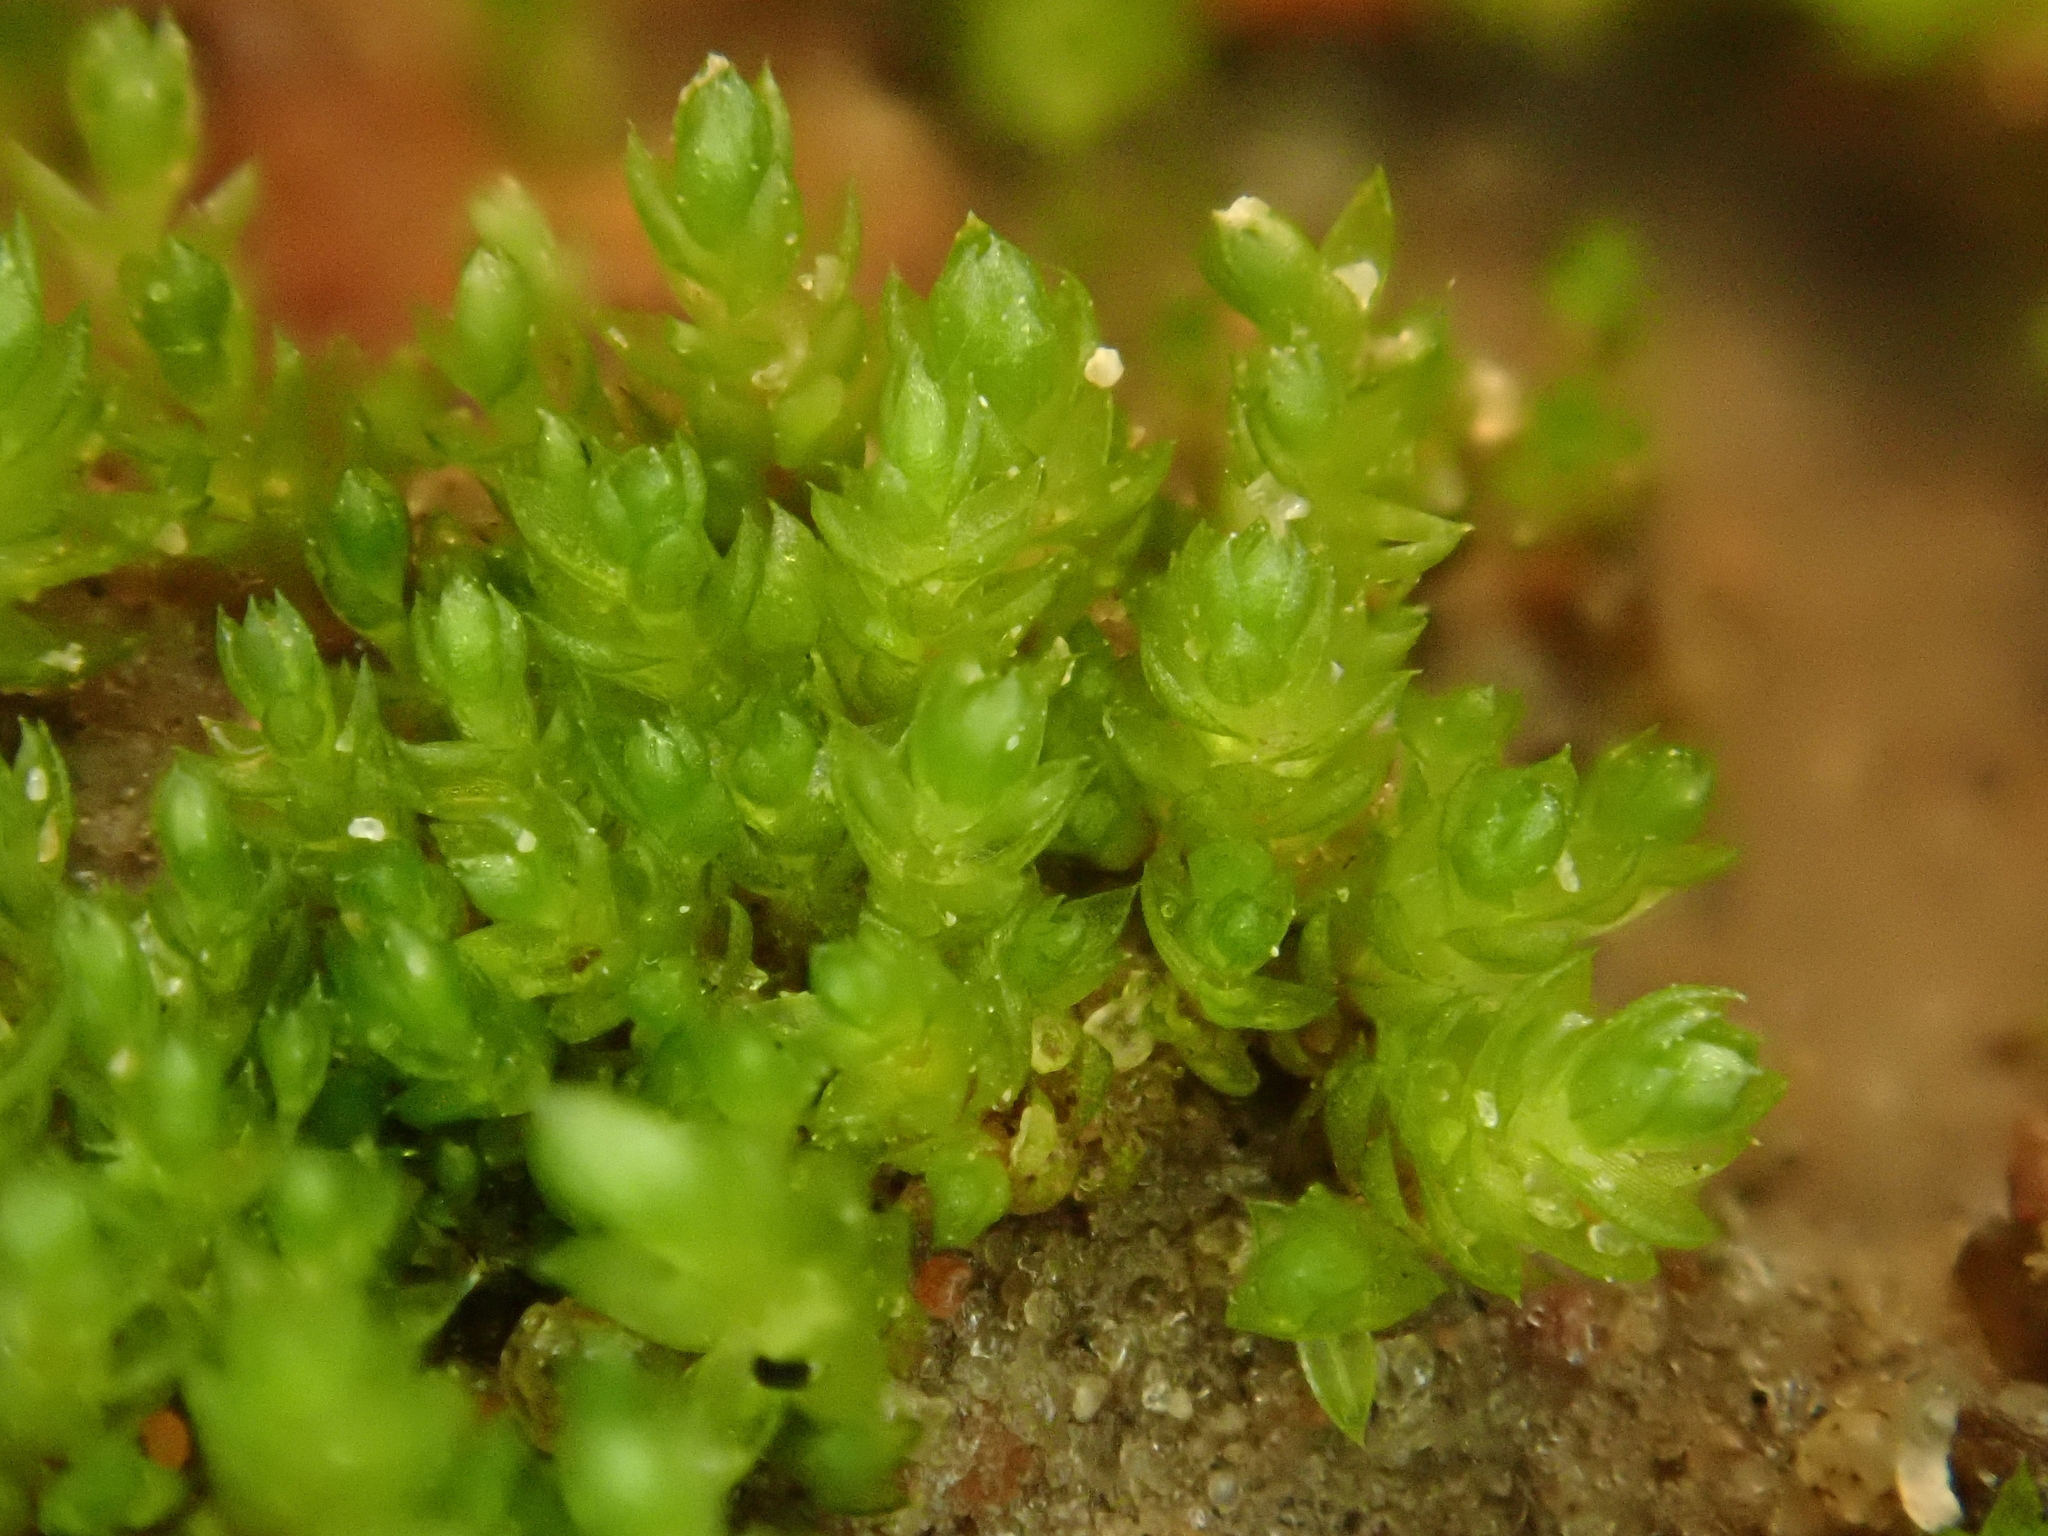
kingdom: Plantae
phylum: Bryophyta
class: Bryopsida
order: Bryales
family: Bryaceae
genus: Gemmabryum
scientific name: Gemmabryum dichotomum
